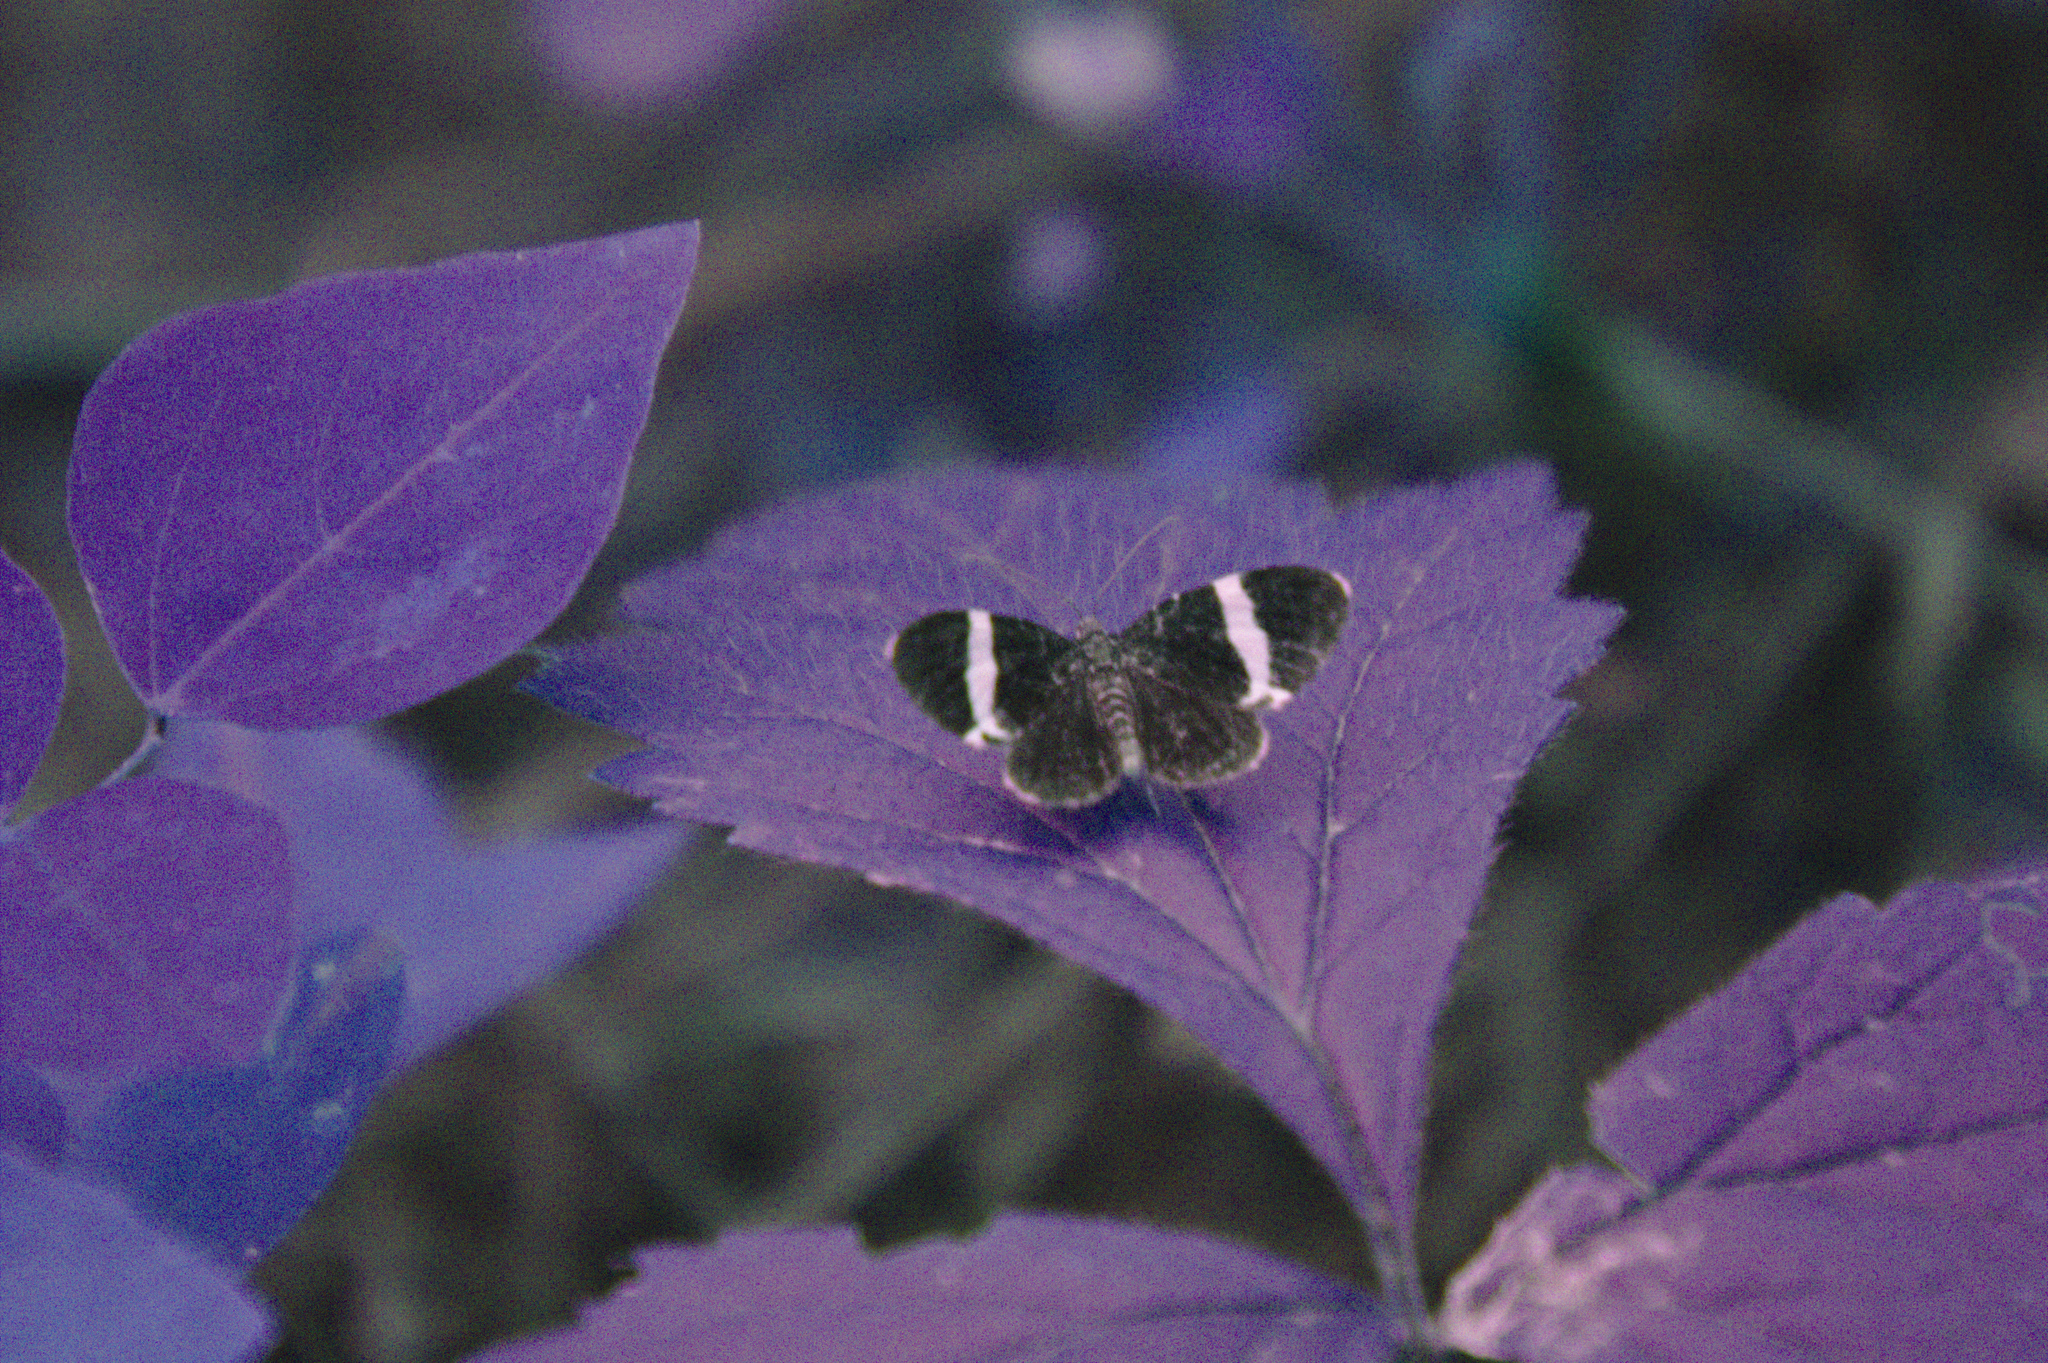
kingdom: Animalia
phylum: Arthropoda
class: Insecta
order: Lepidoptera
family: Geometridae
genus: Trichodezia
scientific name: Trichodezia albovittata
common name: White striped black
